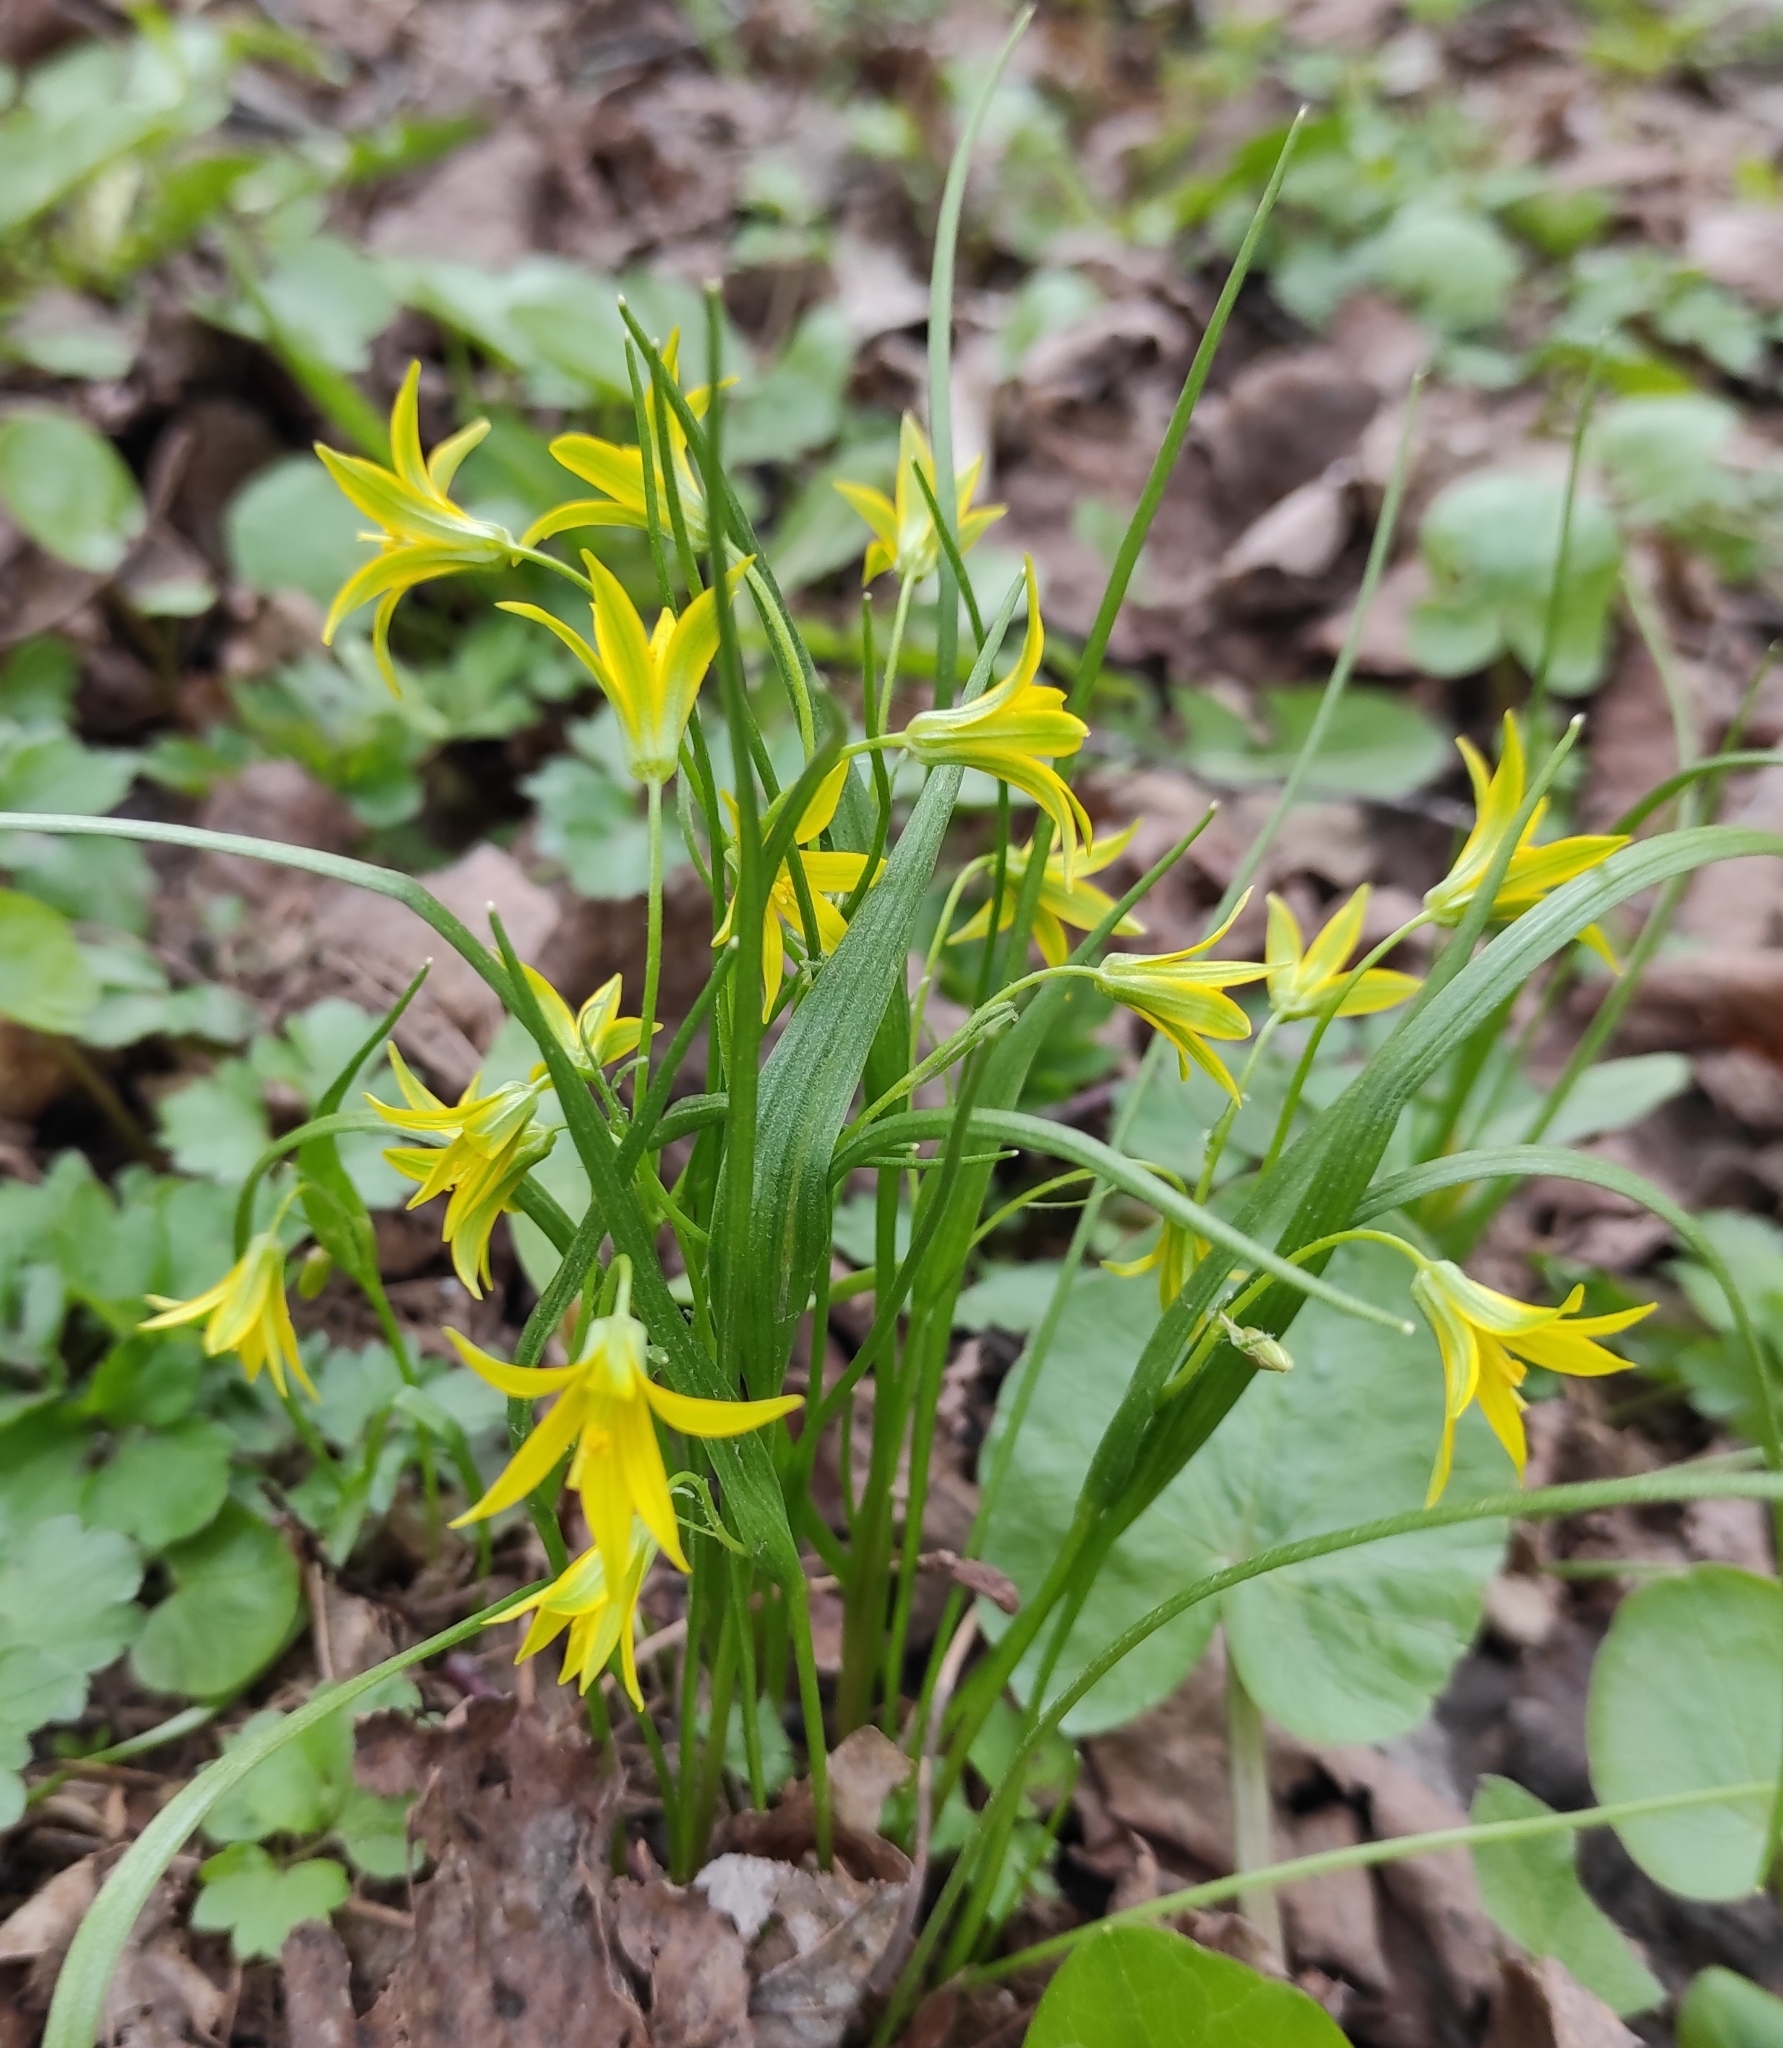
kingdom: Plantae
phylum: Tracheophyta
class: Liliopsida
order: Liliales
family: Liliaceae
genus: Gagea
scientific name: Gagea minima
